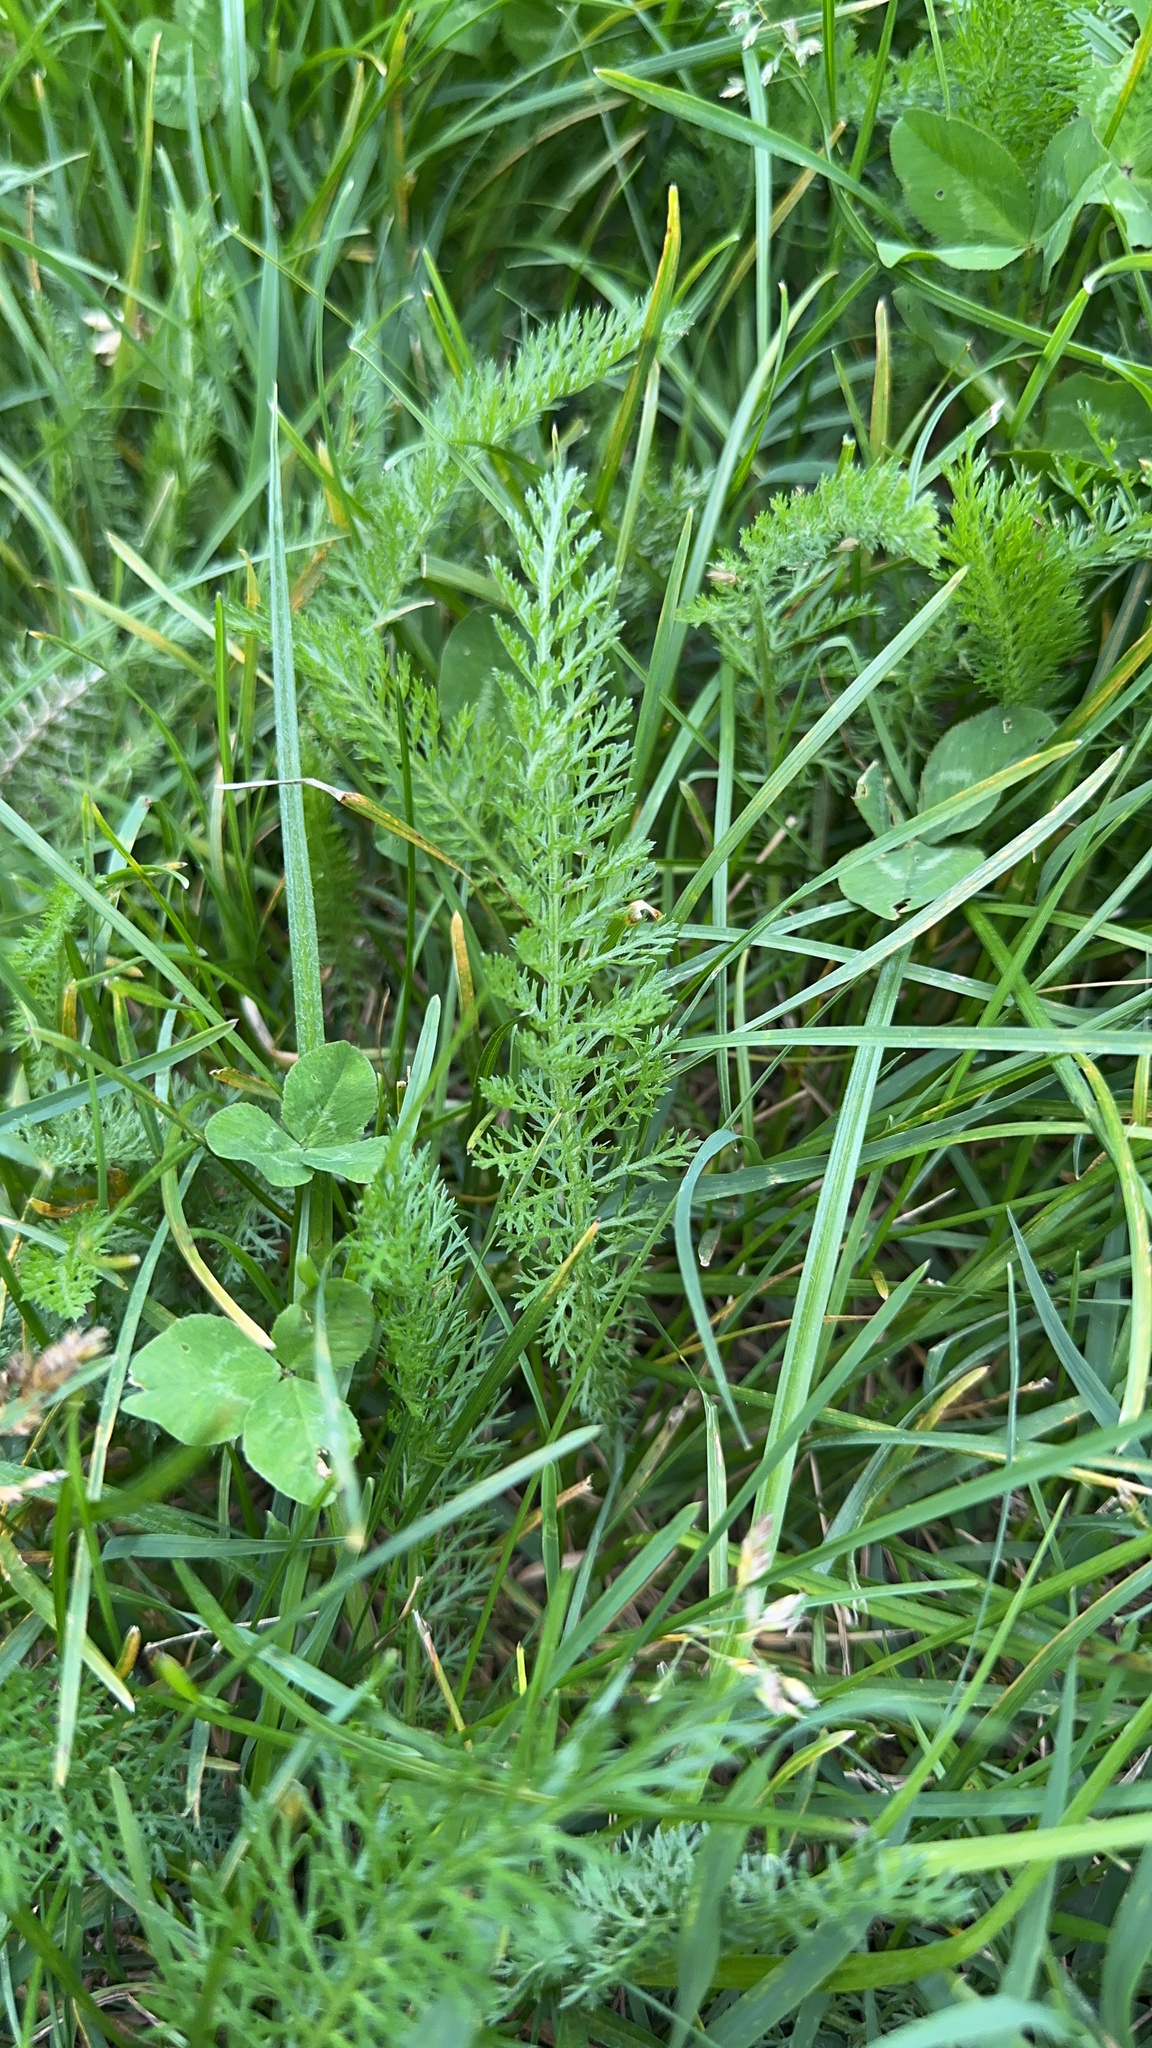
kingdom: Plantae
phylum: Tracheophyta
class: Magnoliopsida
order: Asterales
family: Asteraceae
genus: Achillea
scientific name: Achillea millefolium
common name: Yarrow
